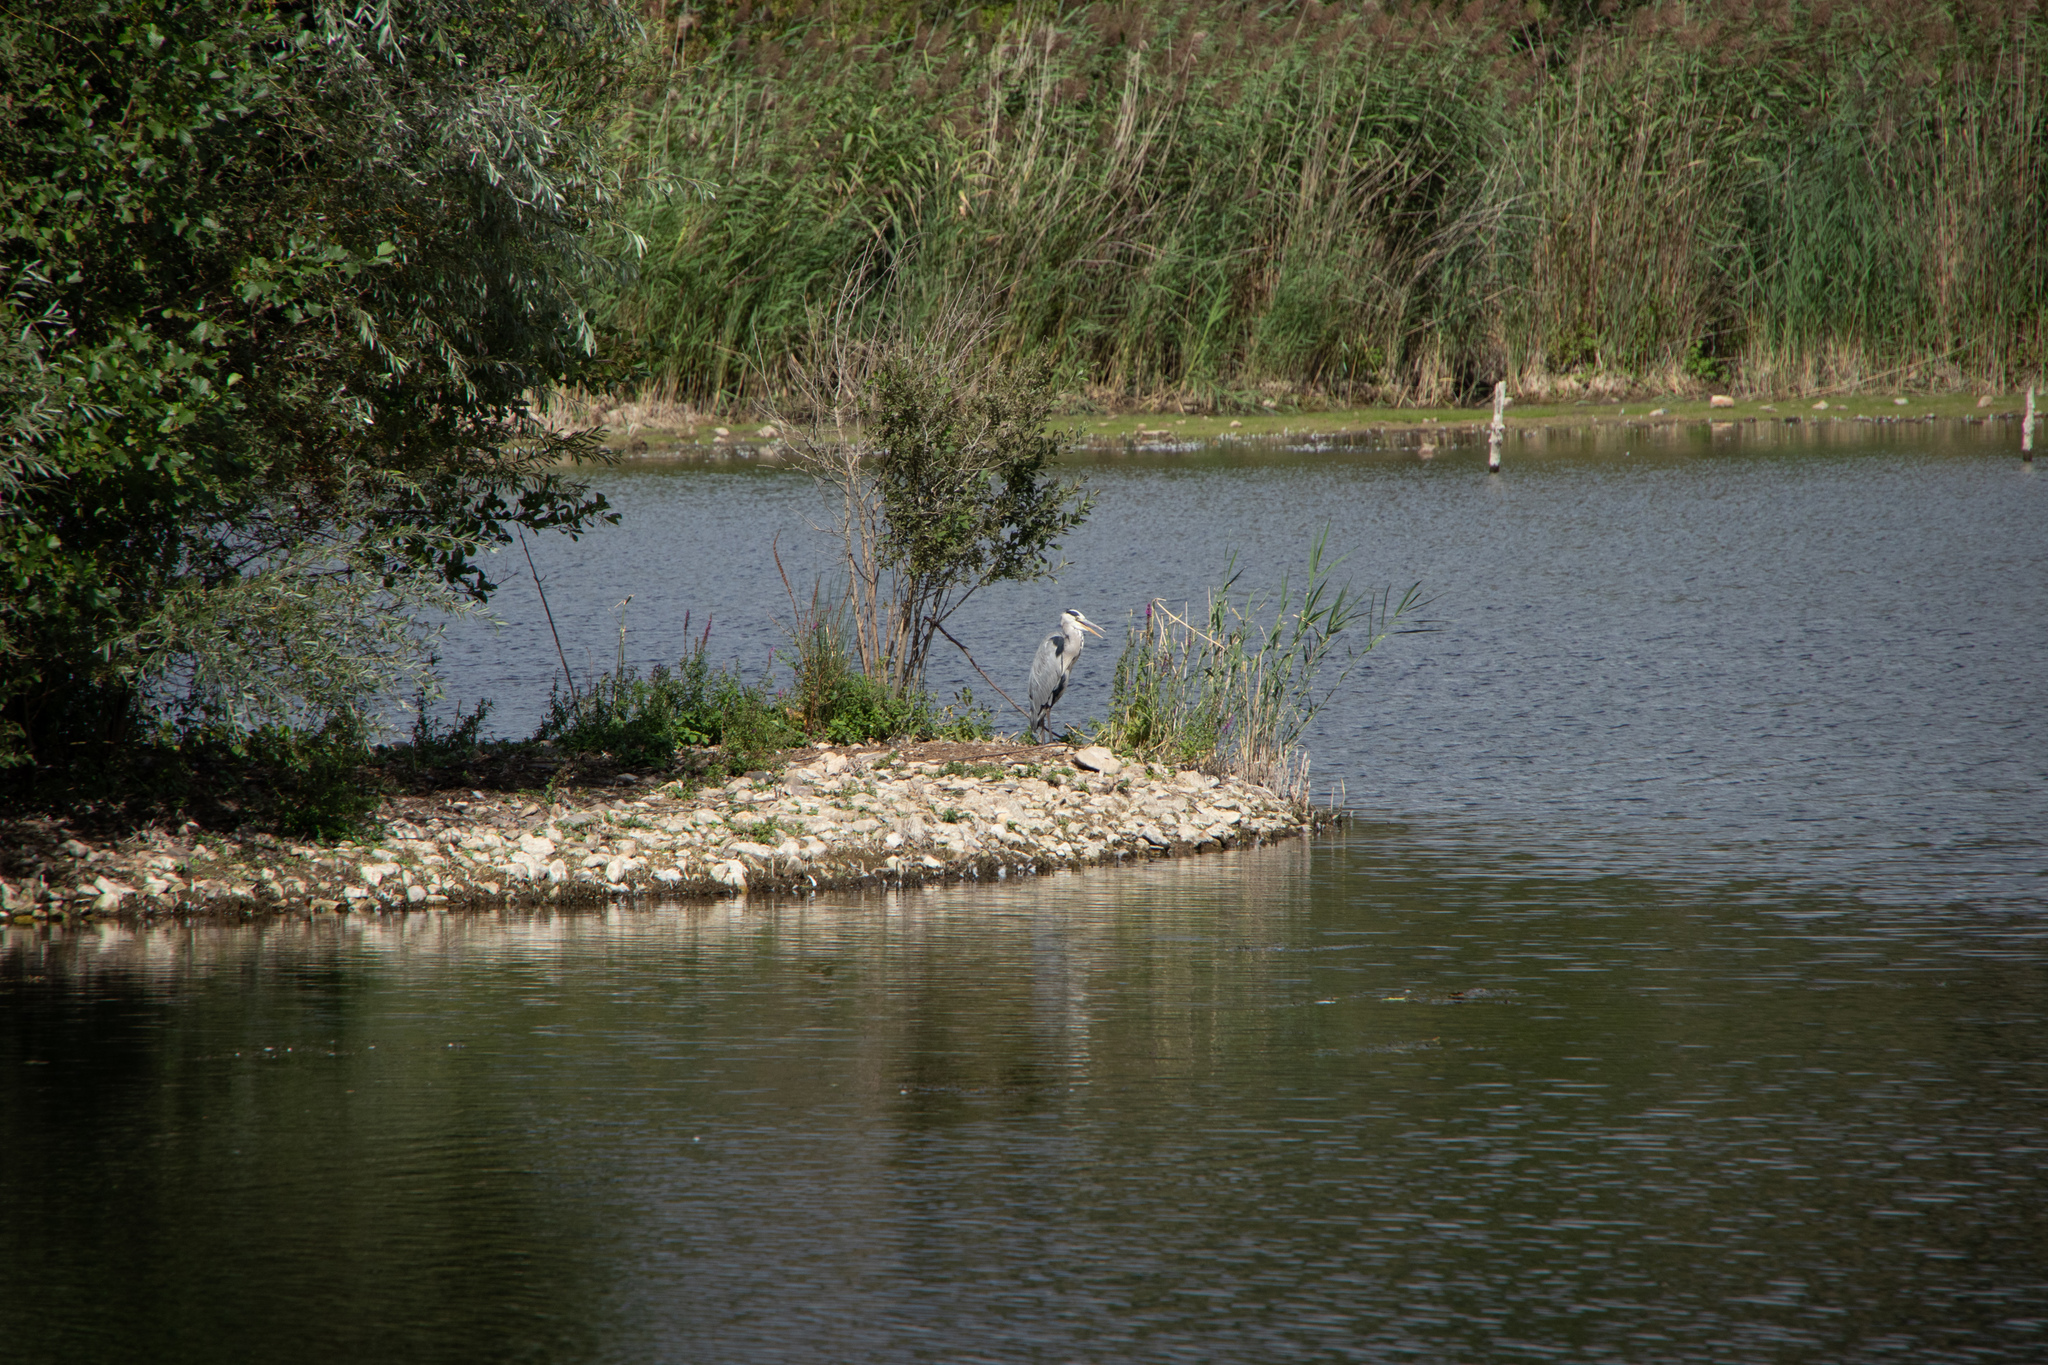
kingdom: Animalia
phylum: Chordata
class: Aves
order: Pelecaniformes
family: Ardeidae
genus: Ardea
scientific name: Ardea cinerea
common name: Grey heron
